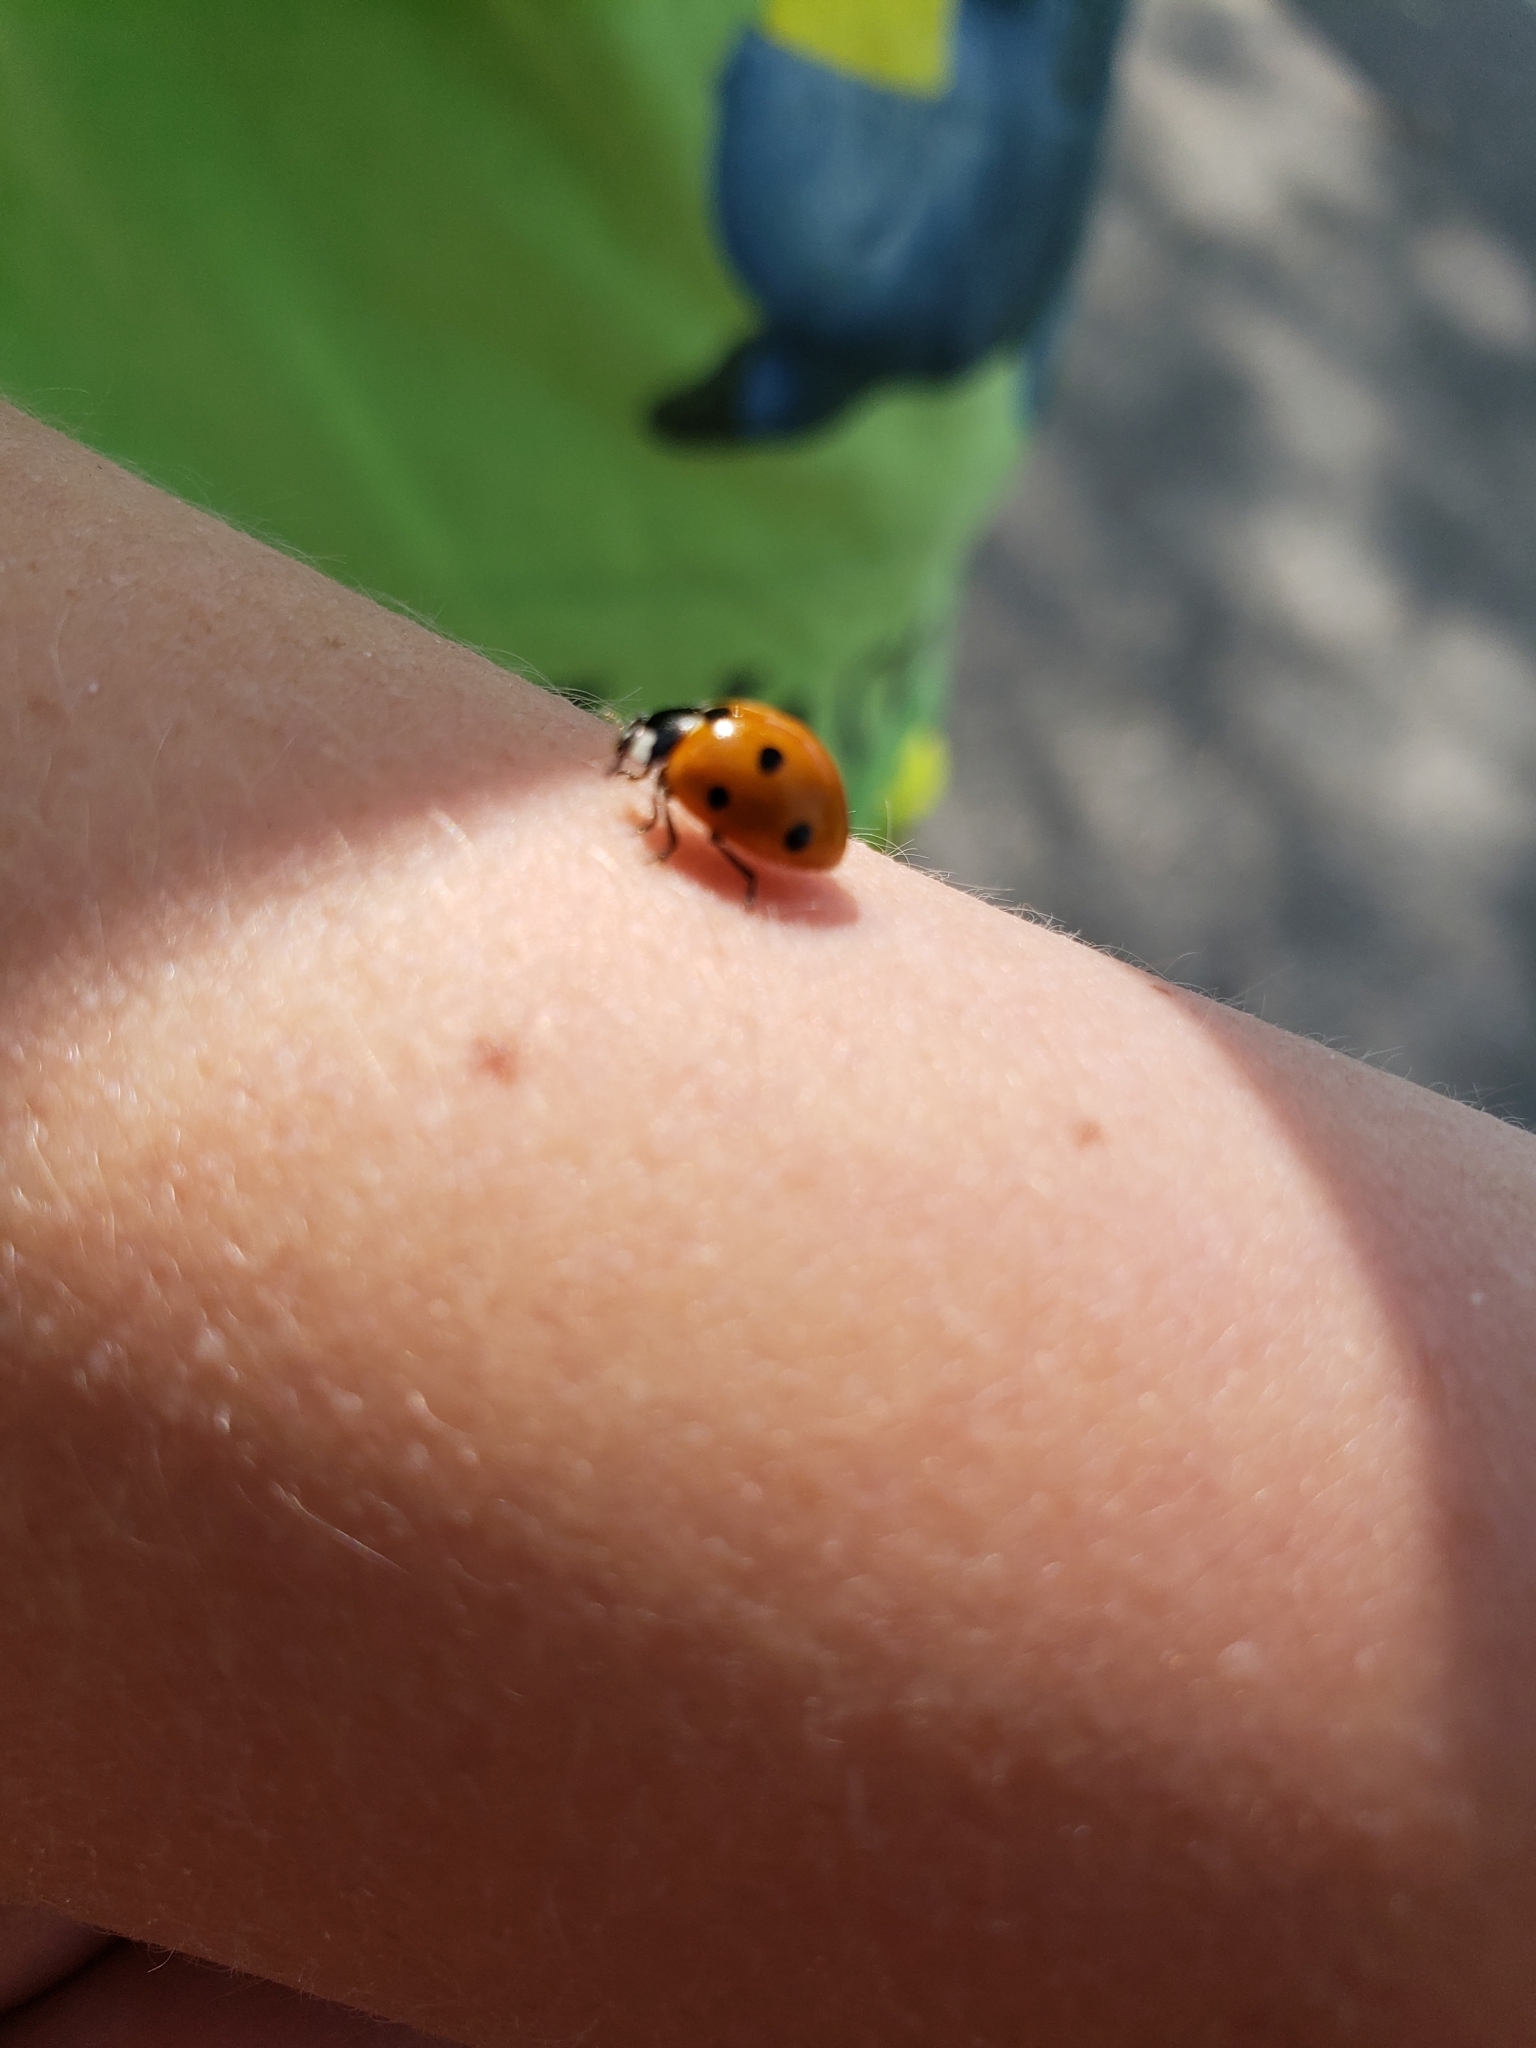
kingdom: Animalia
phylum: Arthropoda
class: Insecta
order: Coleoptera
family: Coccinellidae
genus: Coccinella
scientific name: Coccinella septempunctata
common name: Sevenspotted lady beetle
